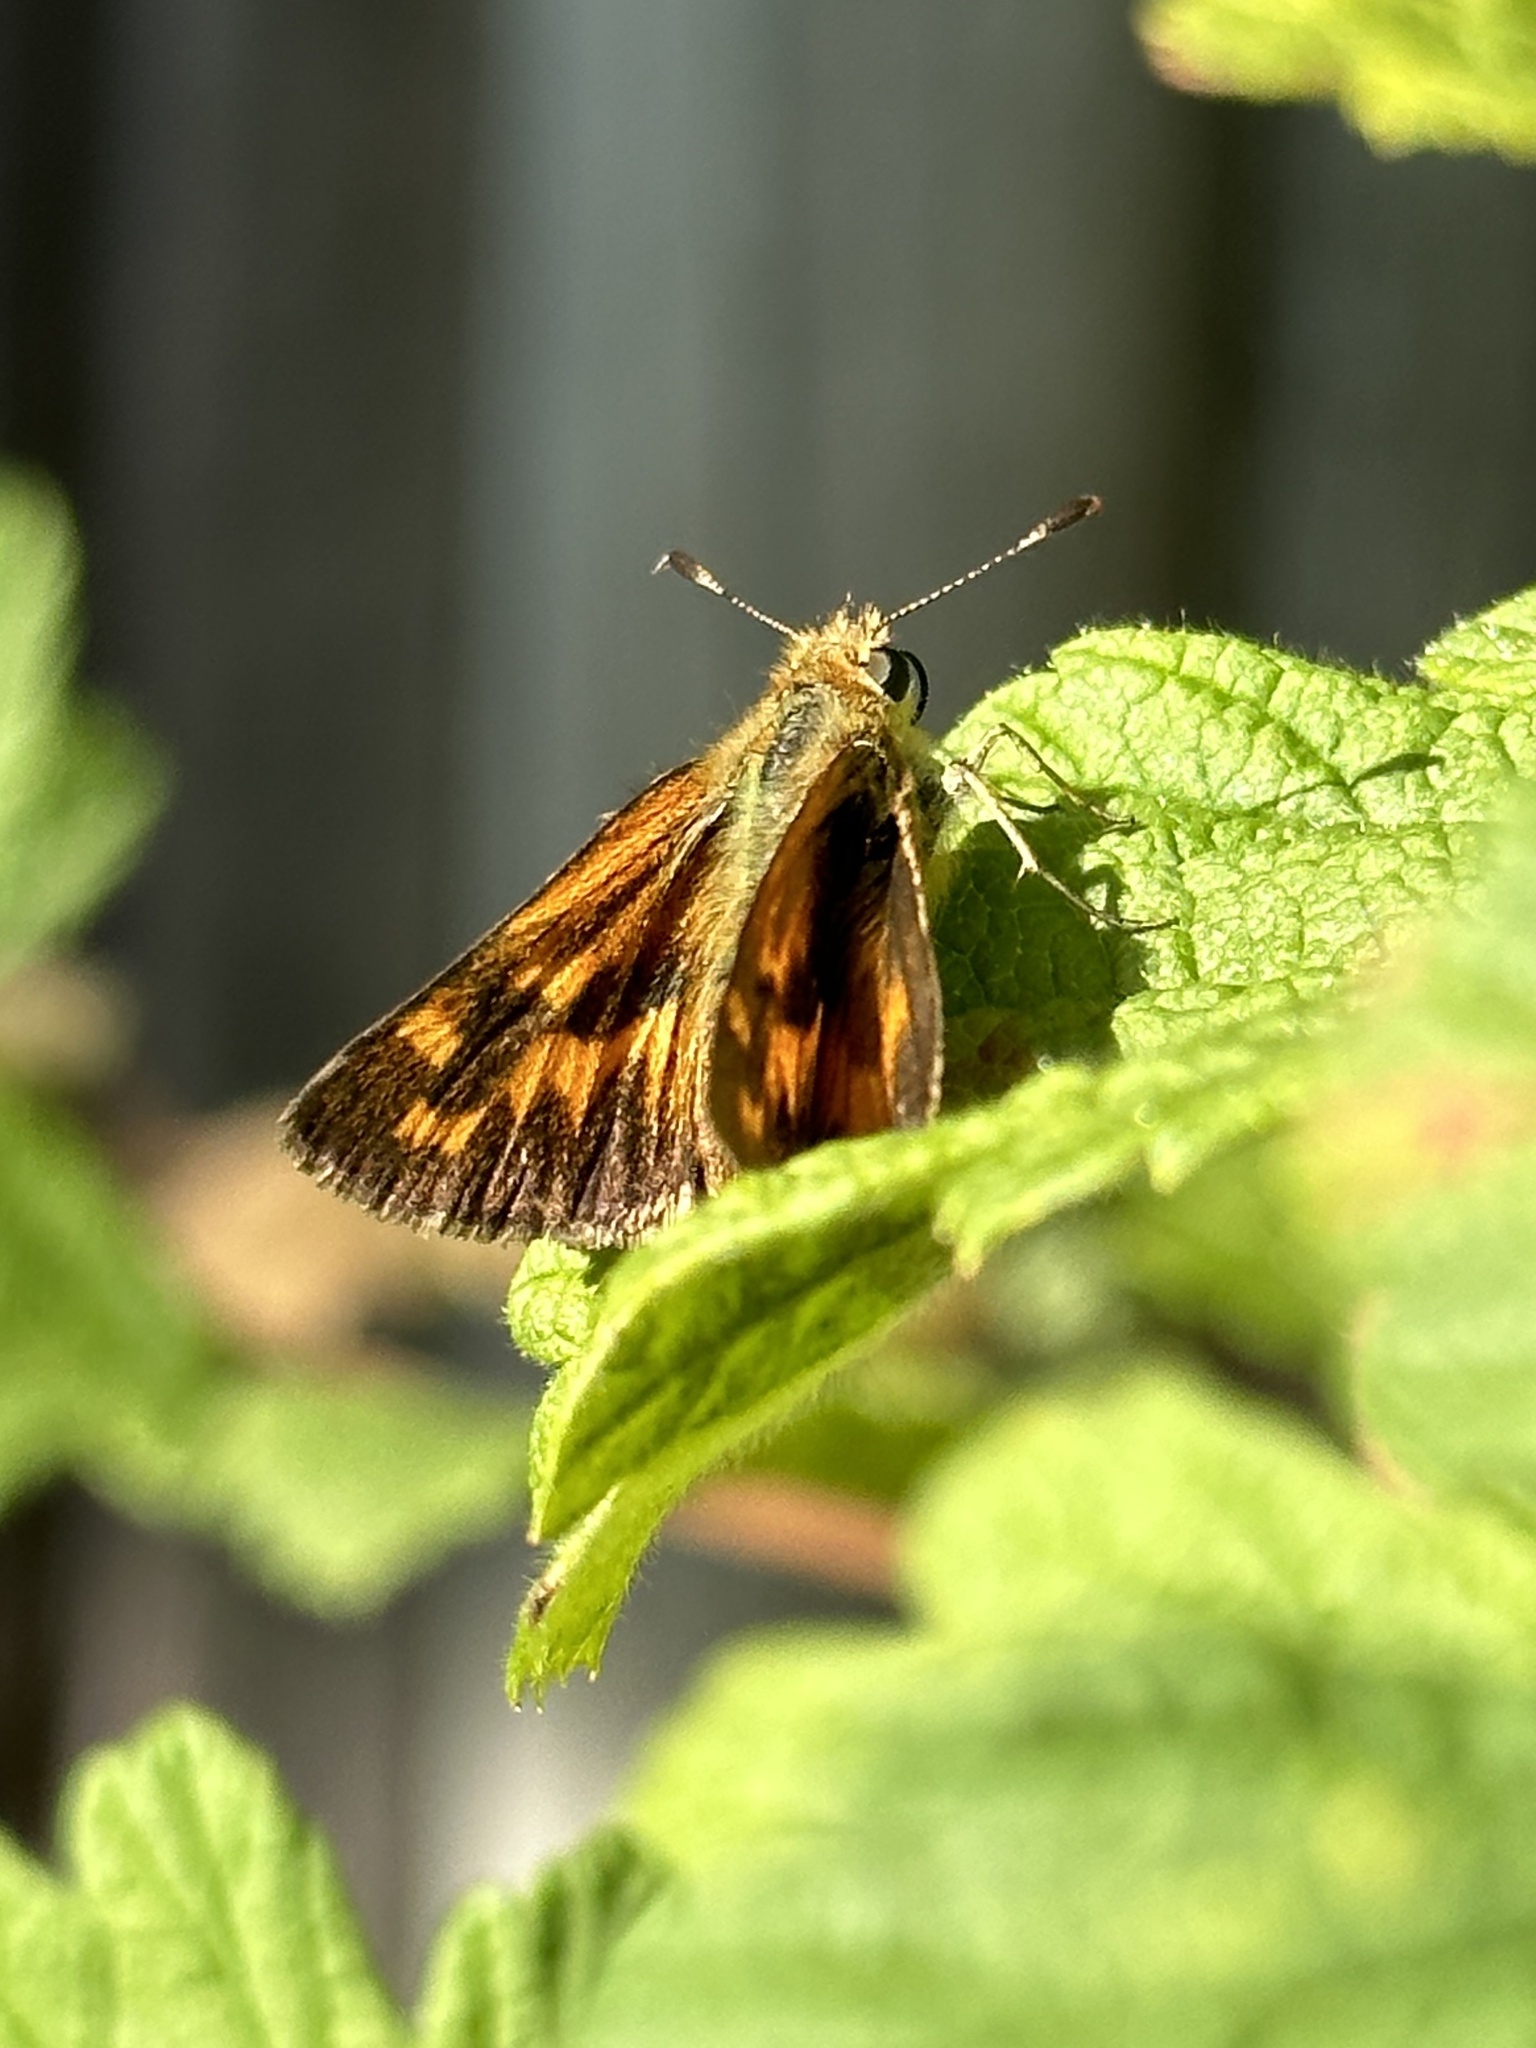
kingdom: Animalia
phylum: Arthropoda
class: Insecta
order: Lepidoptera
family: Hesperiidae
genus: Ochlodes
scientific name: Ochlodes sylvanoides
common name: Woodland skipper
